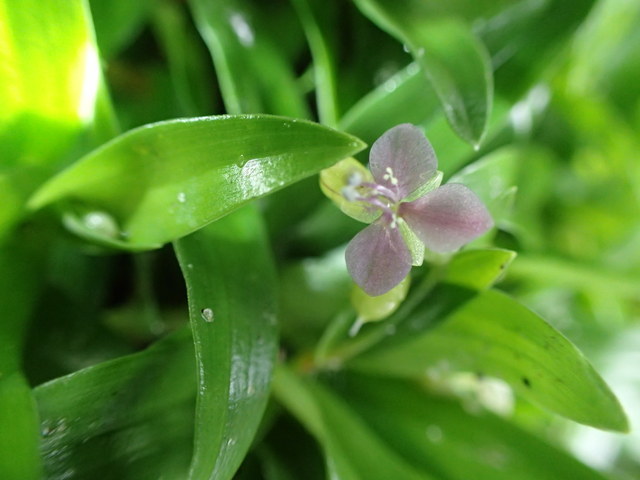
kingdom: Plantae
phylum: Tracheophyta
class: Liliopsida
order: Commelinales
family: Commelinaceae
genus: Murdannia
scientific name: Murdannia nudiflora
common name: Nakedstem dewflower
